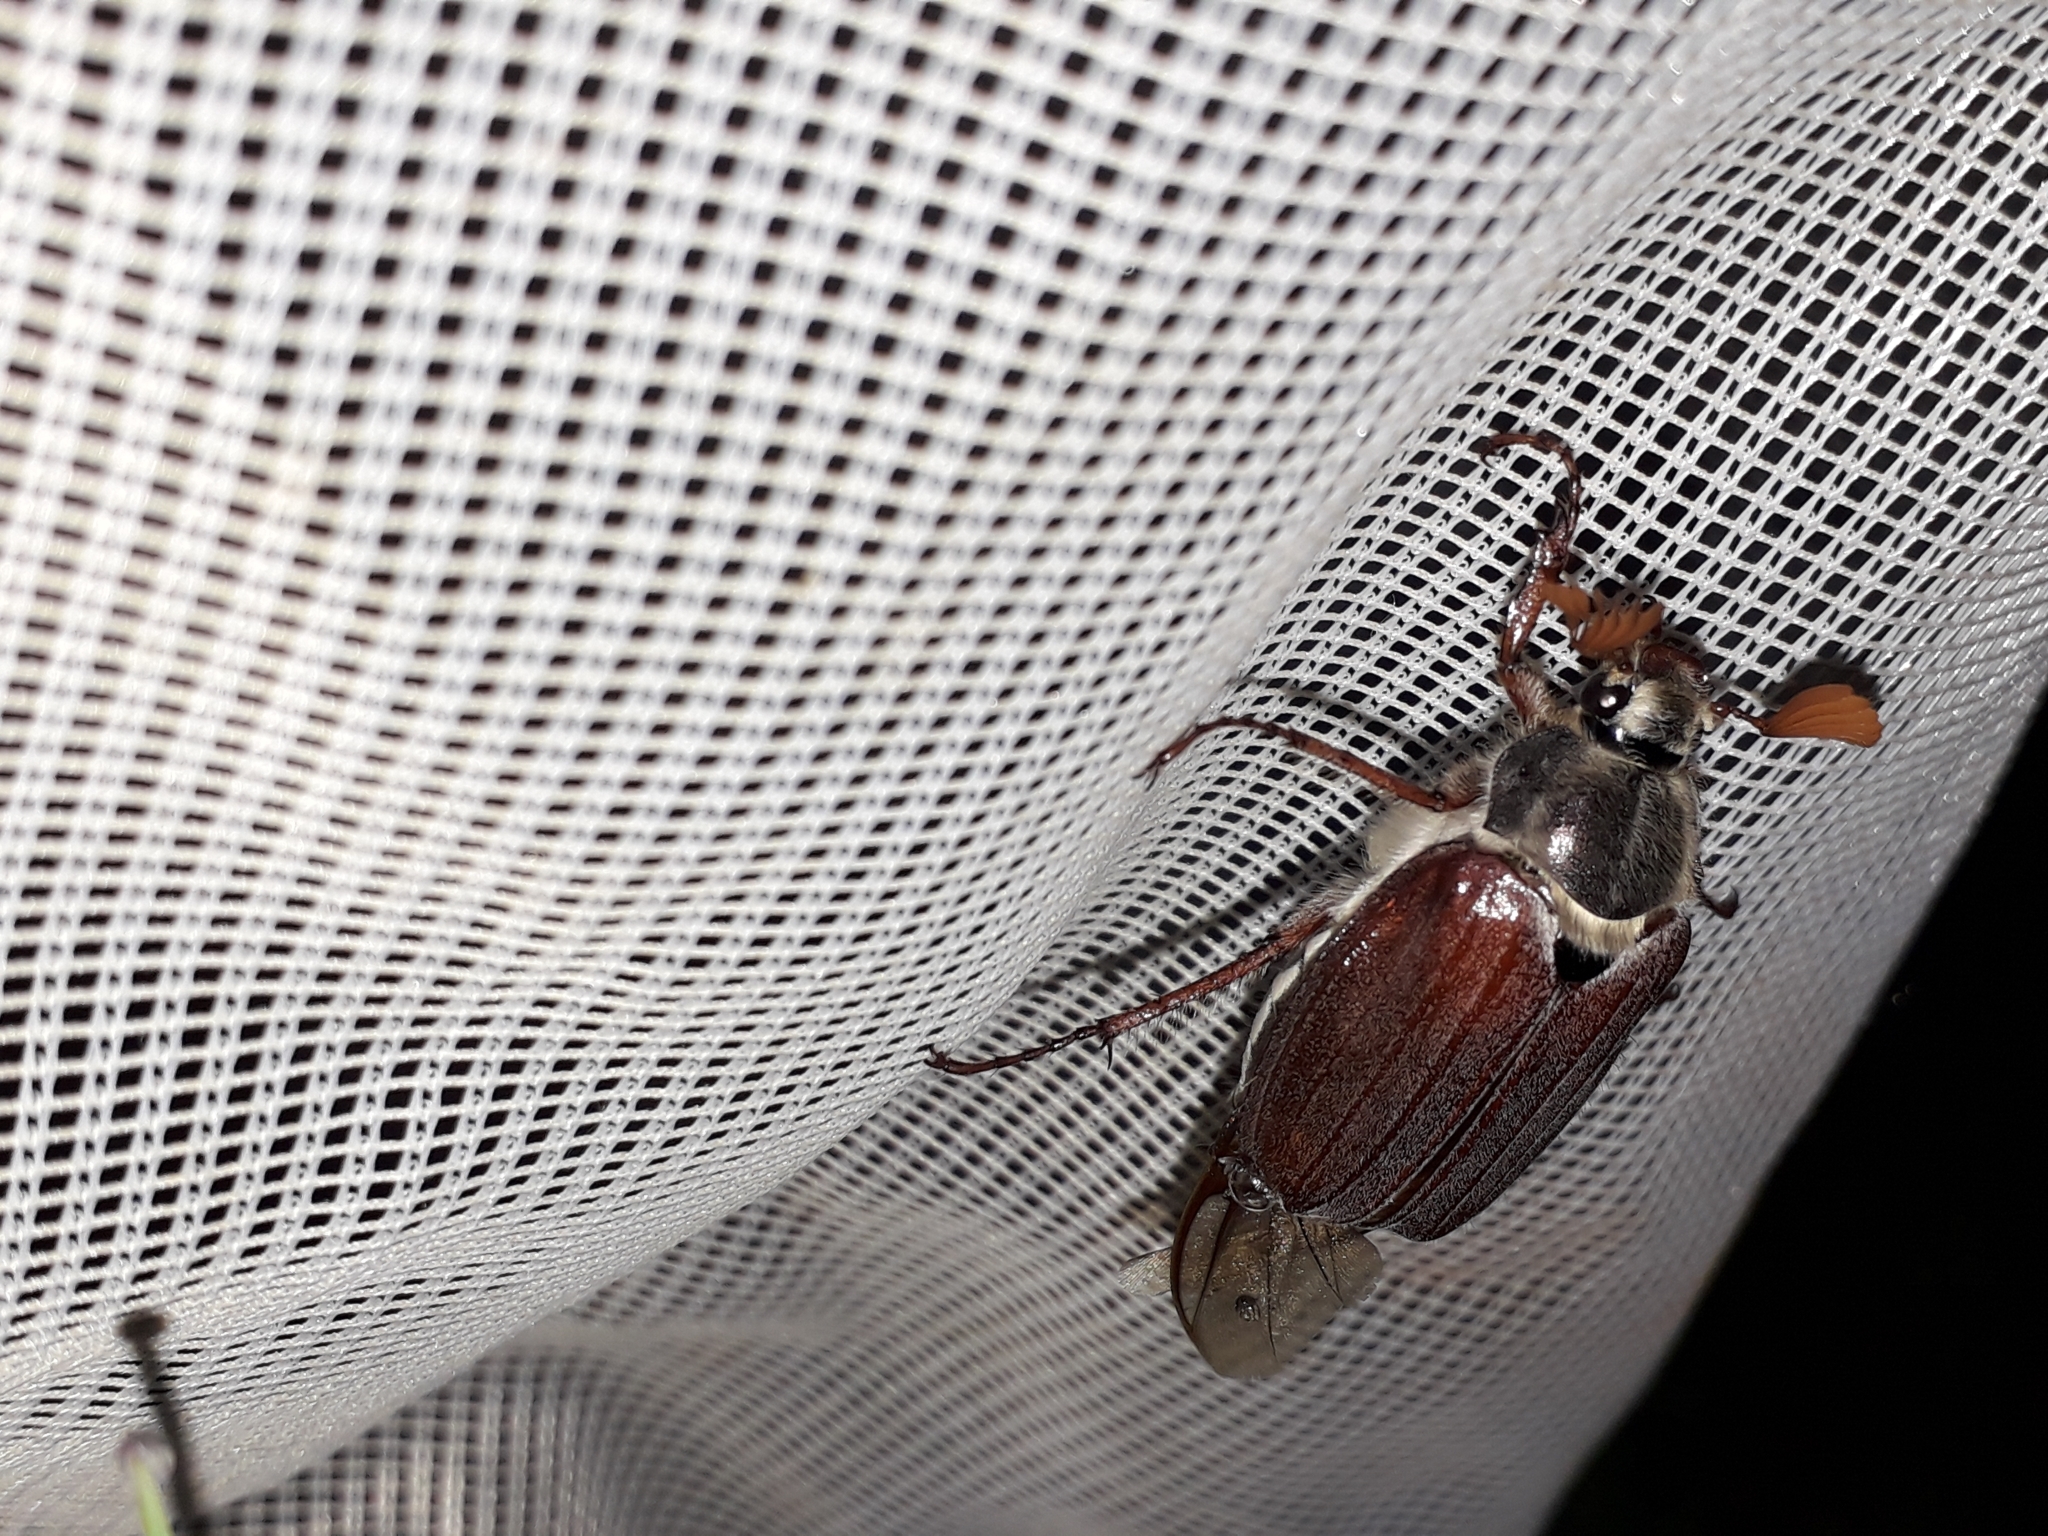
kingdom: Animalia
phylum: Arthropoda
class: Insecta
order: Coleoptera
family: Scarabaeidae
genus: Melolontha
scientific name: Melolontha melolontha
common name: Cockchafer maybeetle
